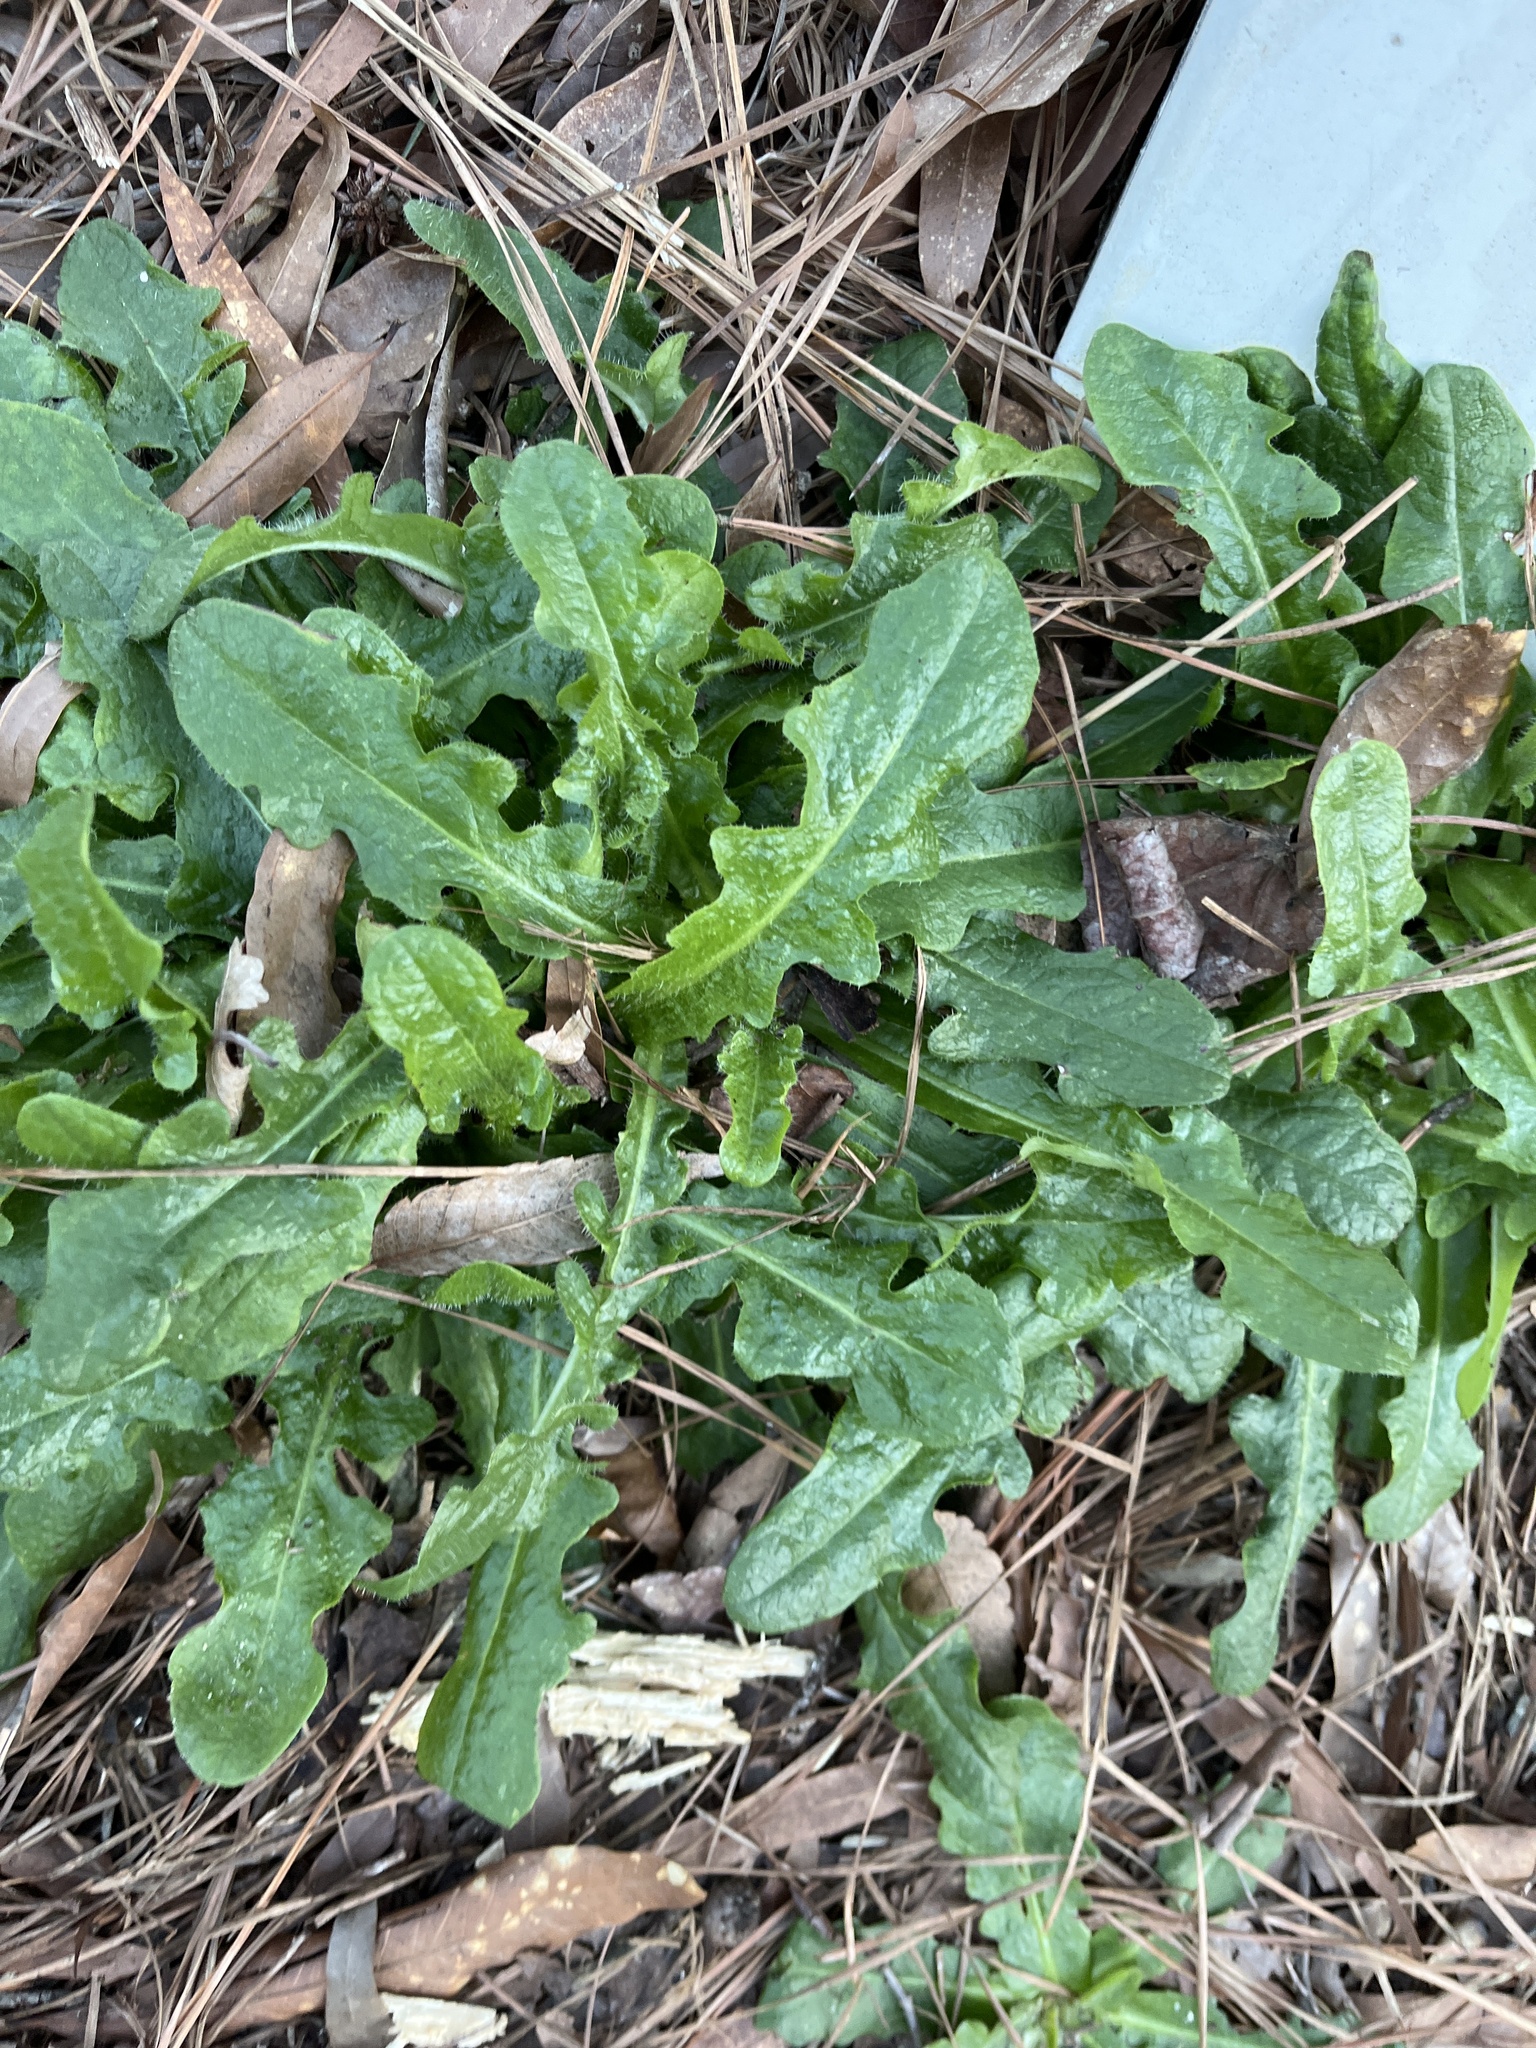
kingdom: Plantae
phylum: Tracheophyta
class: Magnoliopsida
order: Asterales
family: Asteraceae
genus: Hypochaeris
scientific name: Hypochaeris radicata
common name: Flatweed
